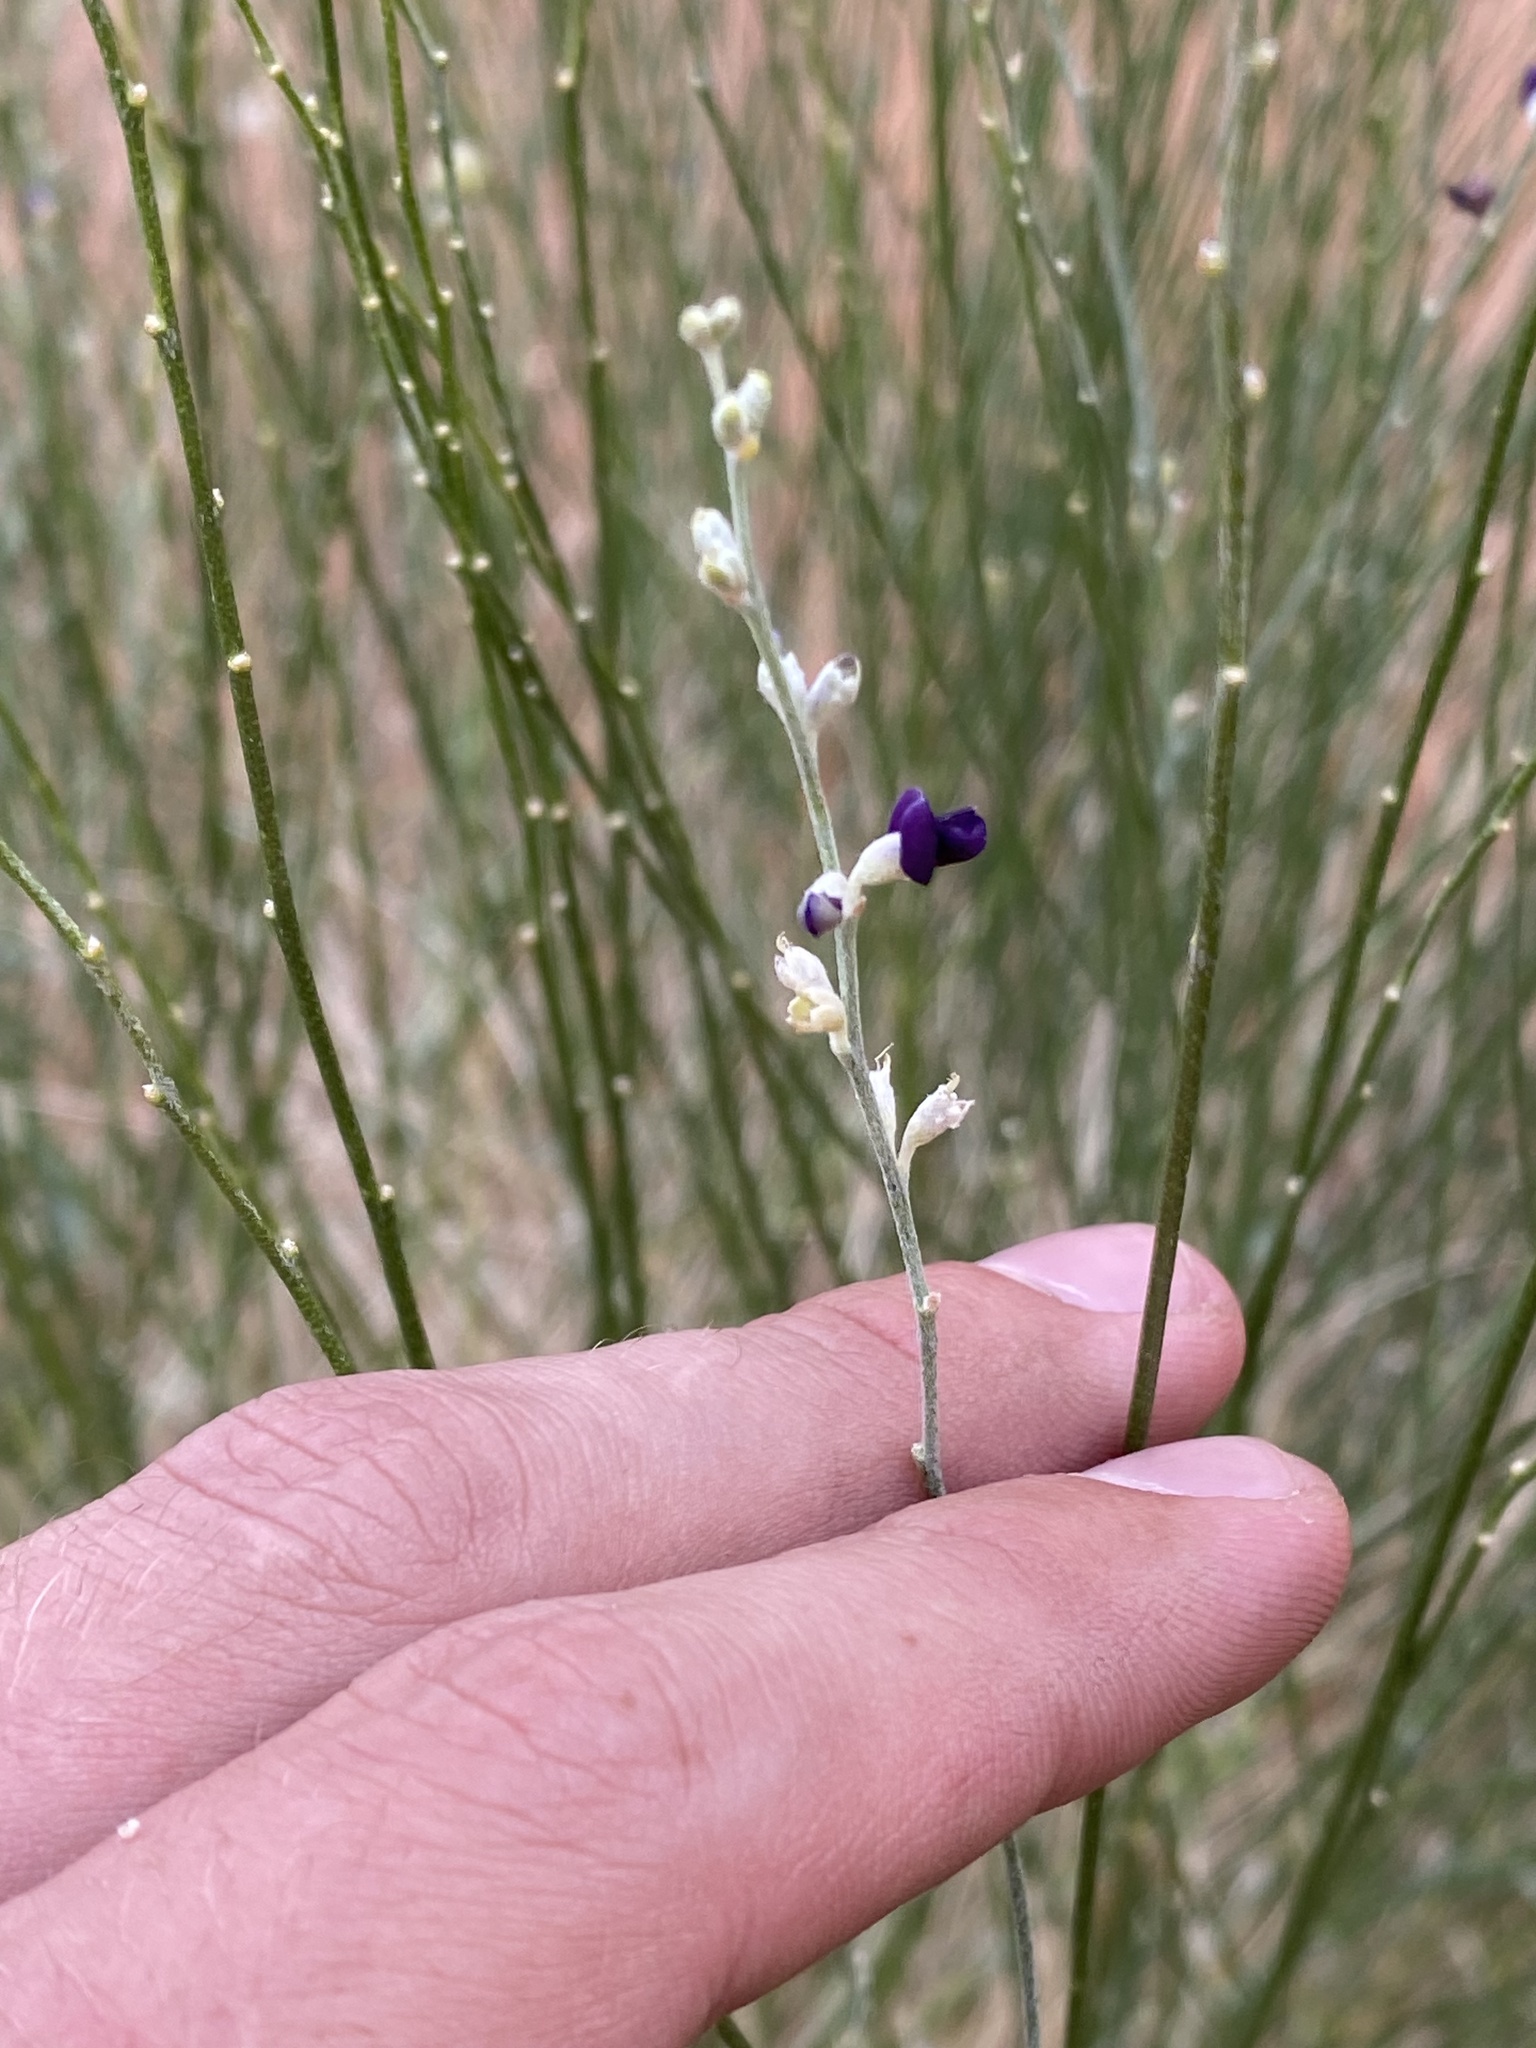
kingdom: Plantae
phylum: Tracheophyta
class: Magnoliopsida
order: Fabales
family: Fabaceae
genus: Pediomelum
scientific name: Pediomelum
